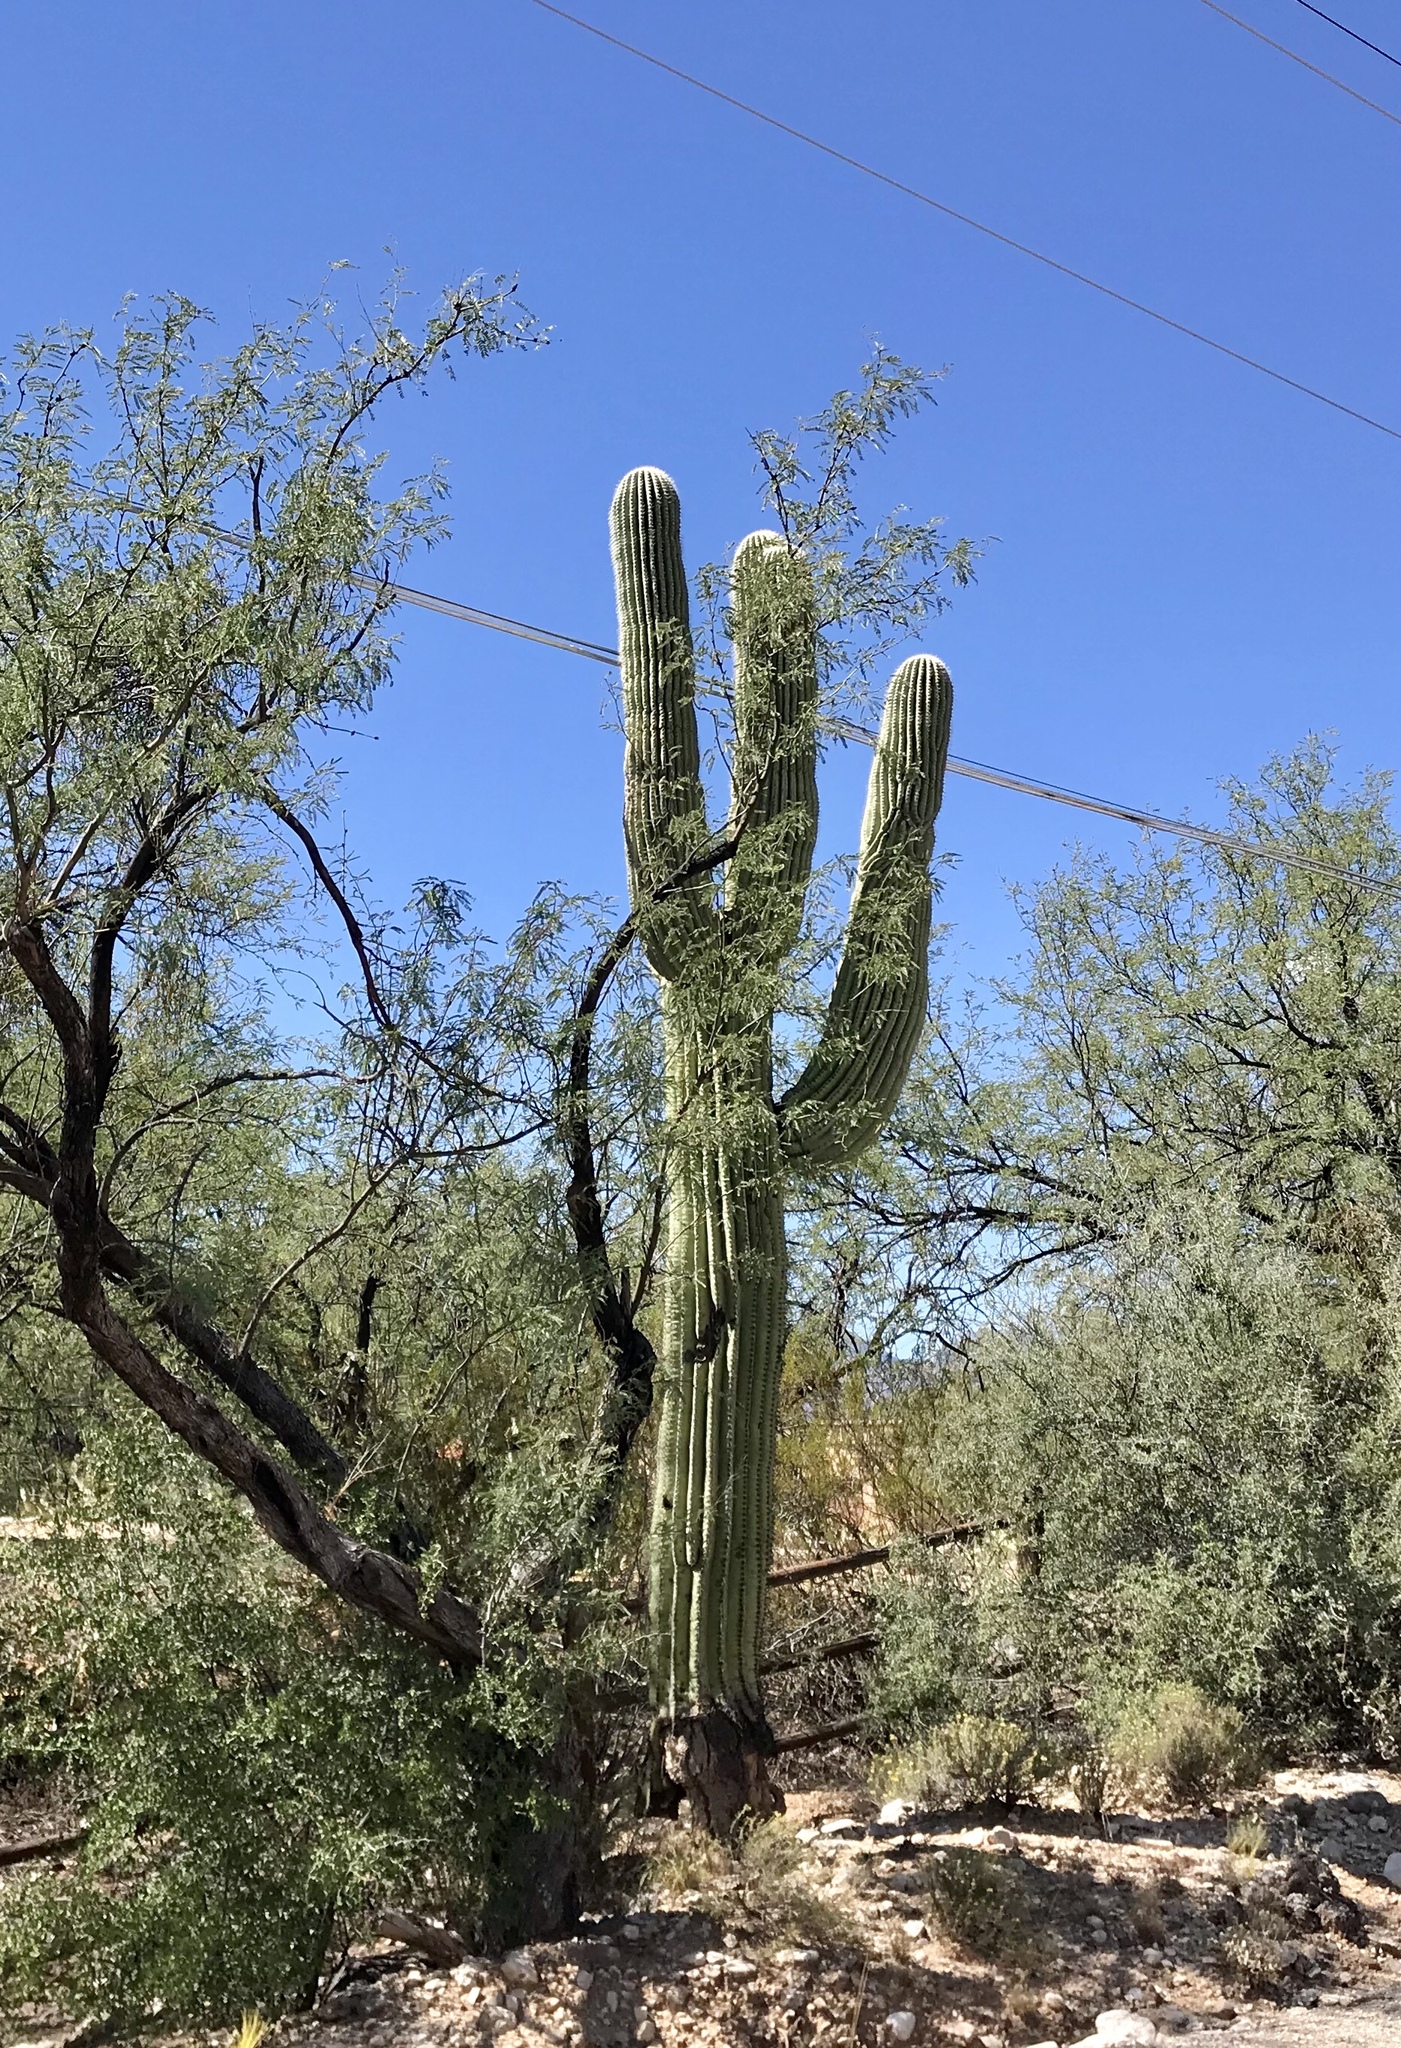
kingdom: Plantae
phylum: Tracheophyta
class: Magnoliopsida
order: Caryophyllales
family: Cactaceae
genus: Carnegiea
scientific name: Carnegiea gigantea
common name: Saguaro
